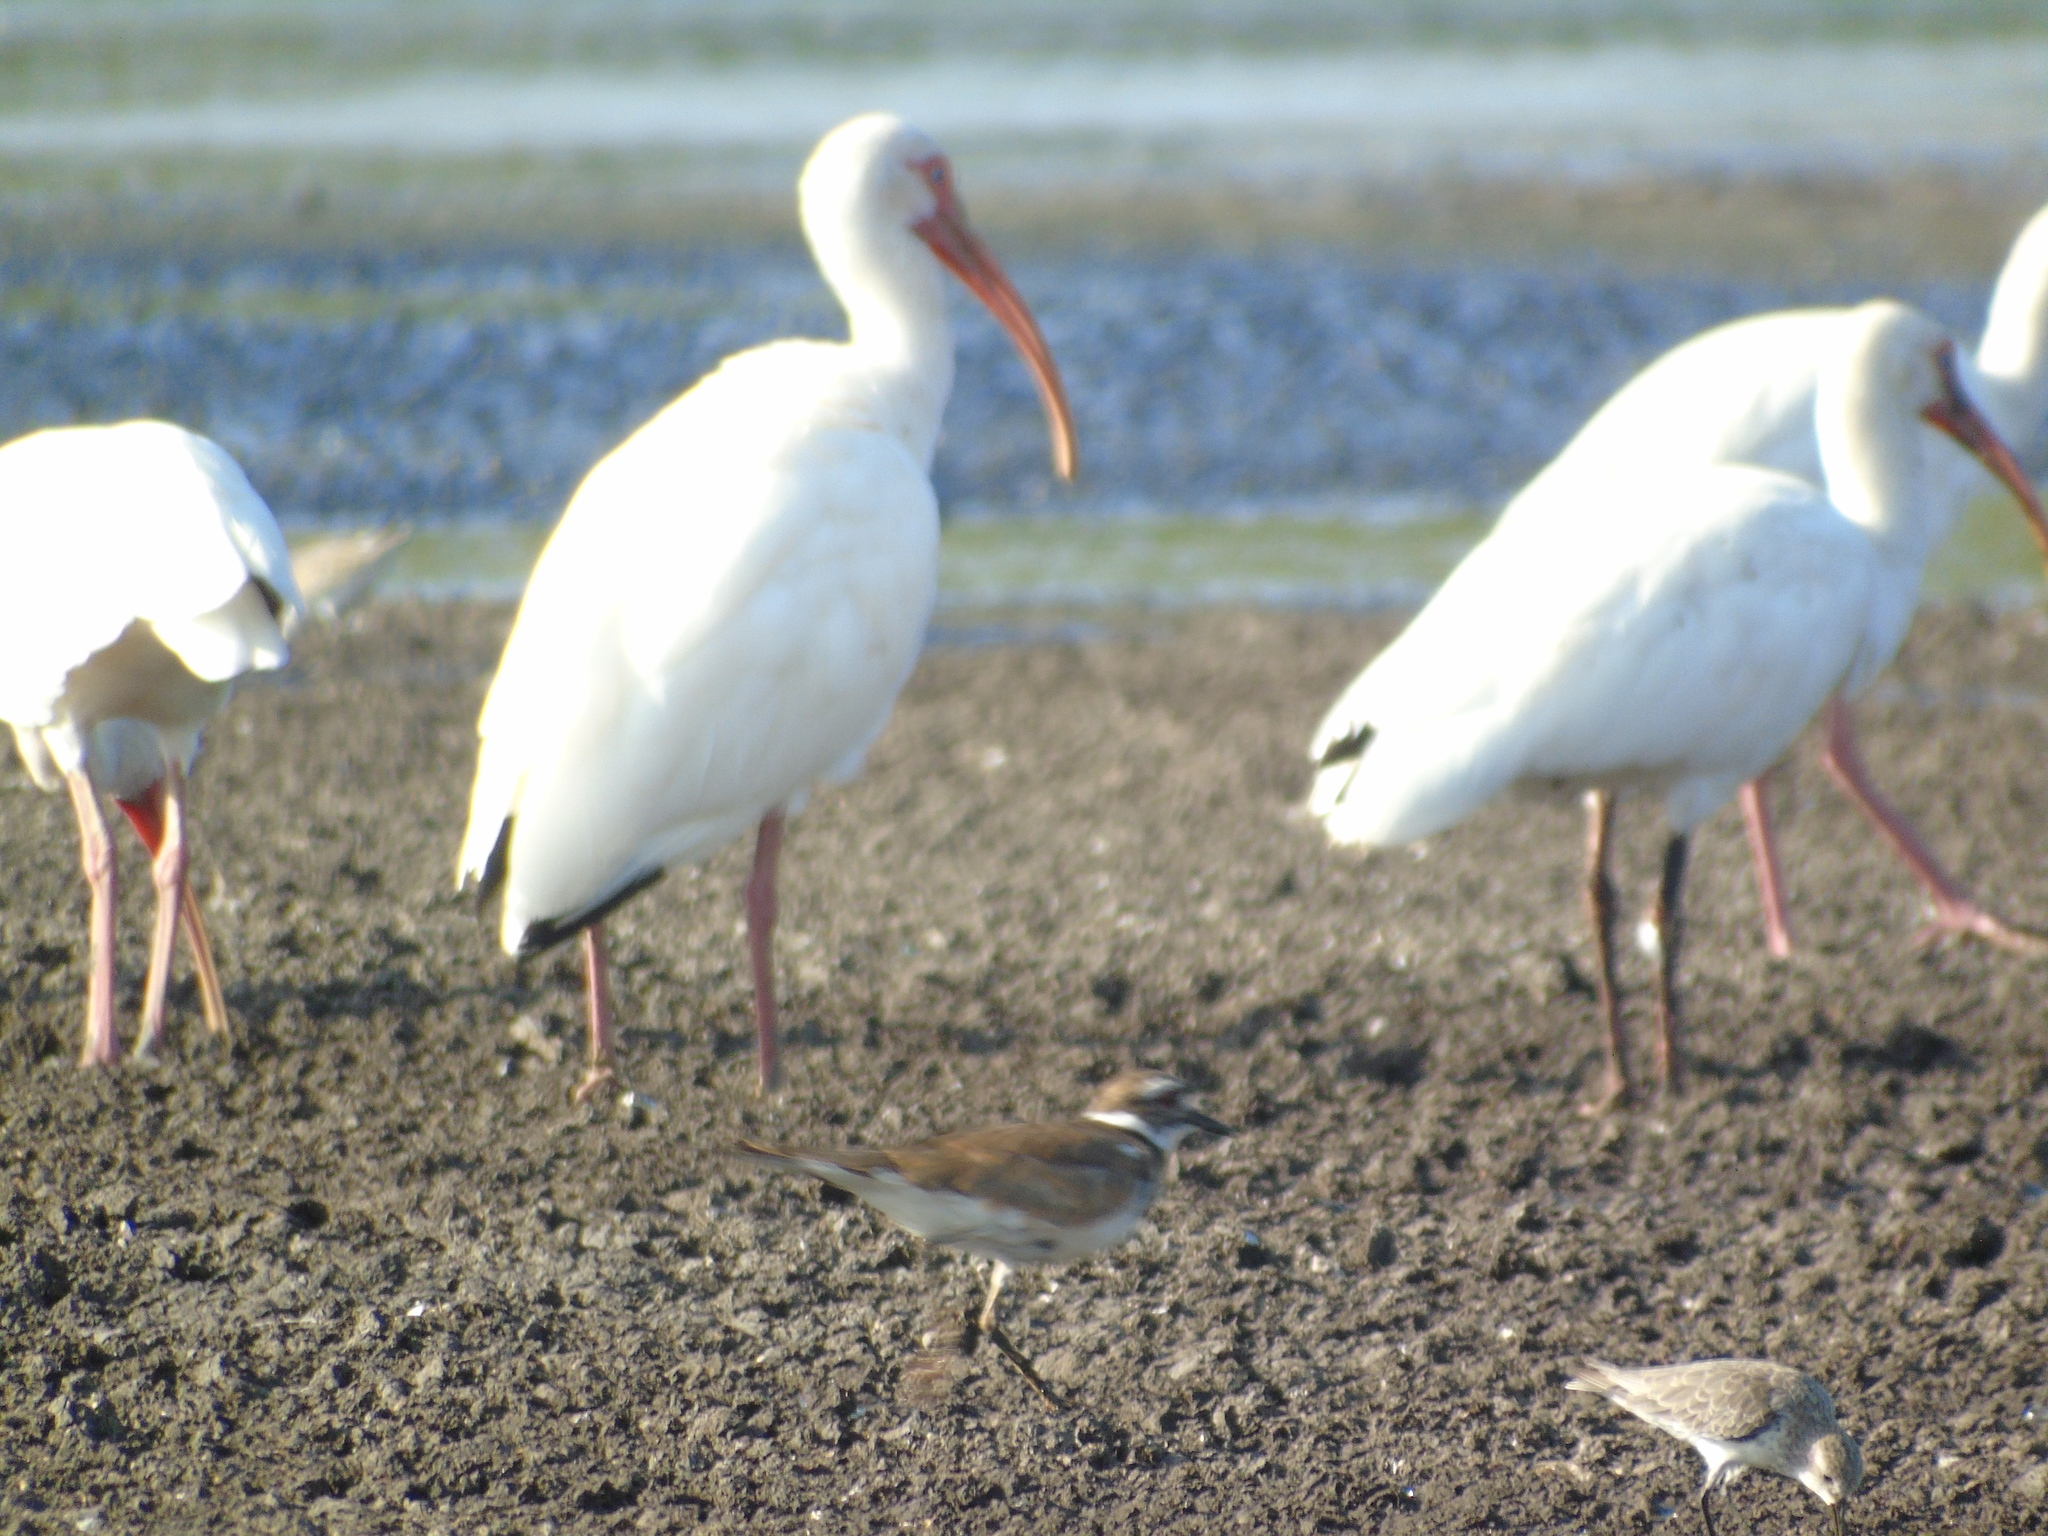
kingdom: Animalia
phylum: Chordata
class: Aves
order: Pelecaniformes
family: Threskiornithidae
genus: Eudocimus
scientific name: Eudocimus albus
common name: White ibis
